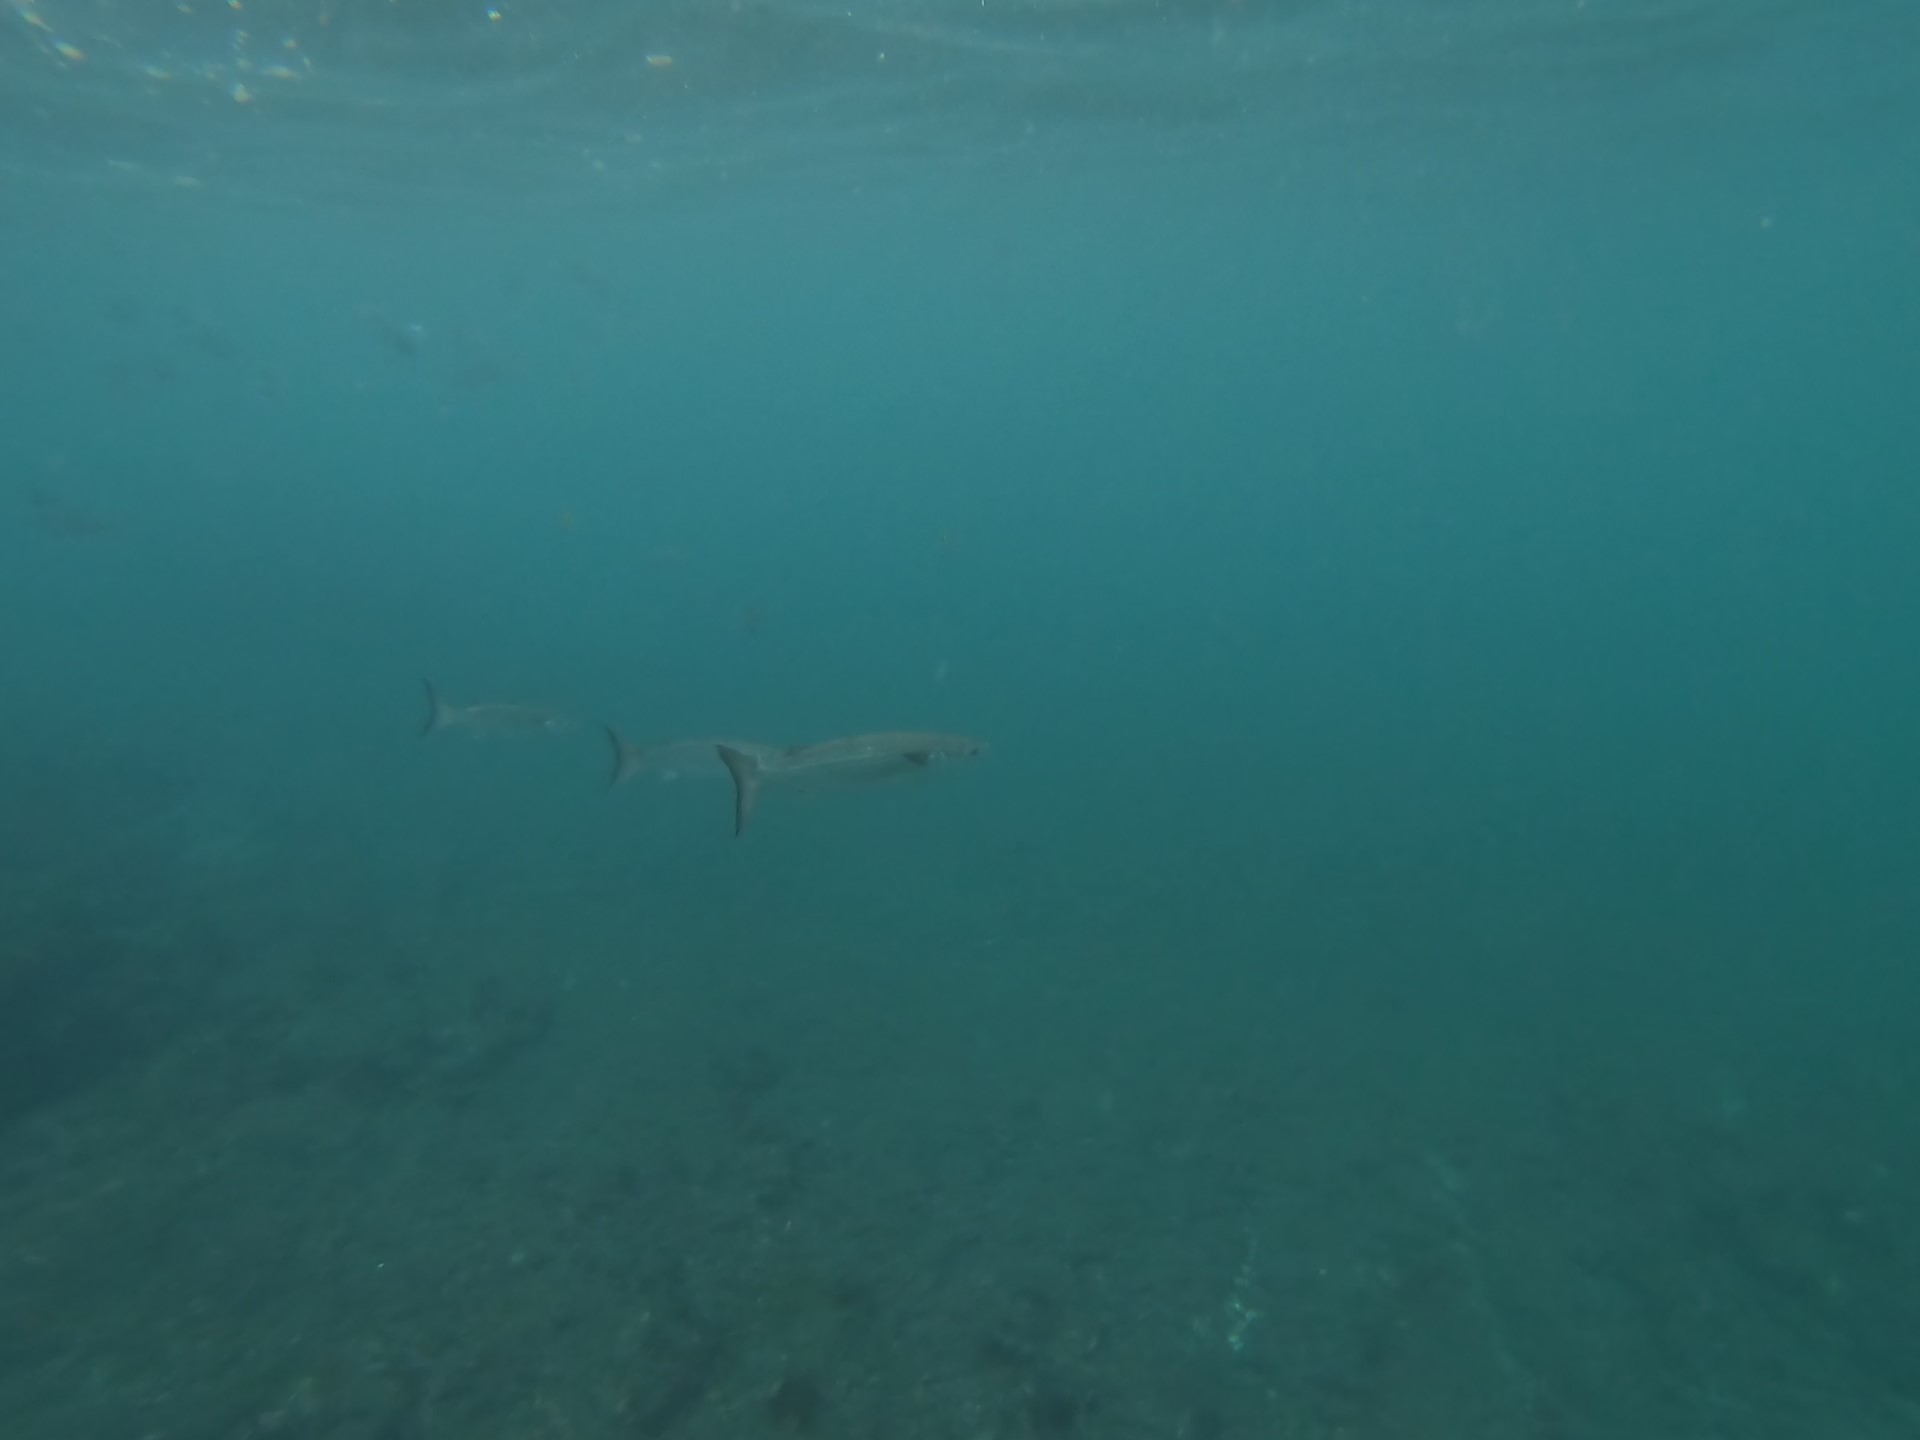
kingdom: Animalia
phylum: Chordata
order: Mugiliformes
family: Mugilidae
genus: Mugil
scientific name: Mugil curema
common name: White mullet
